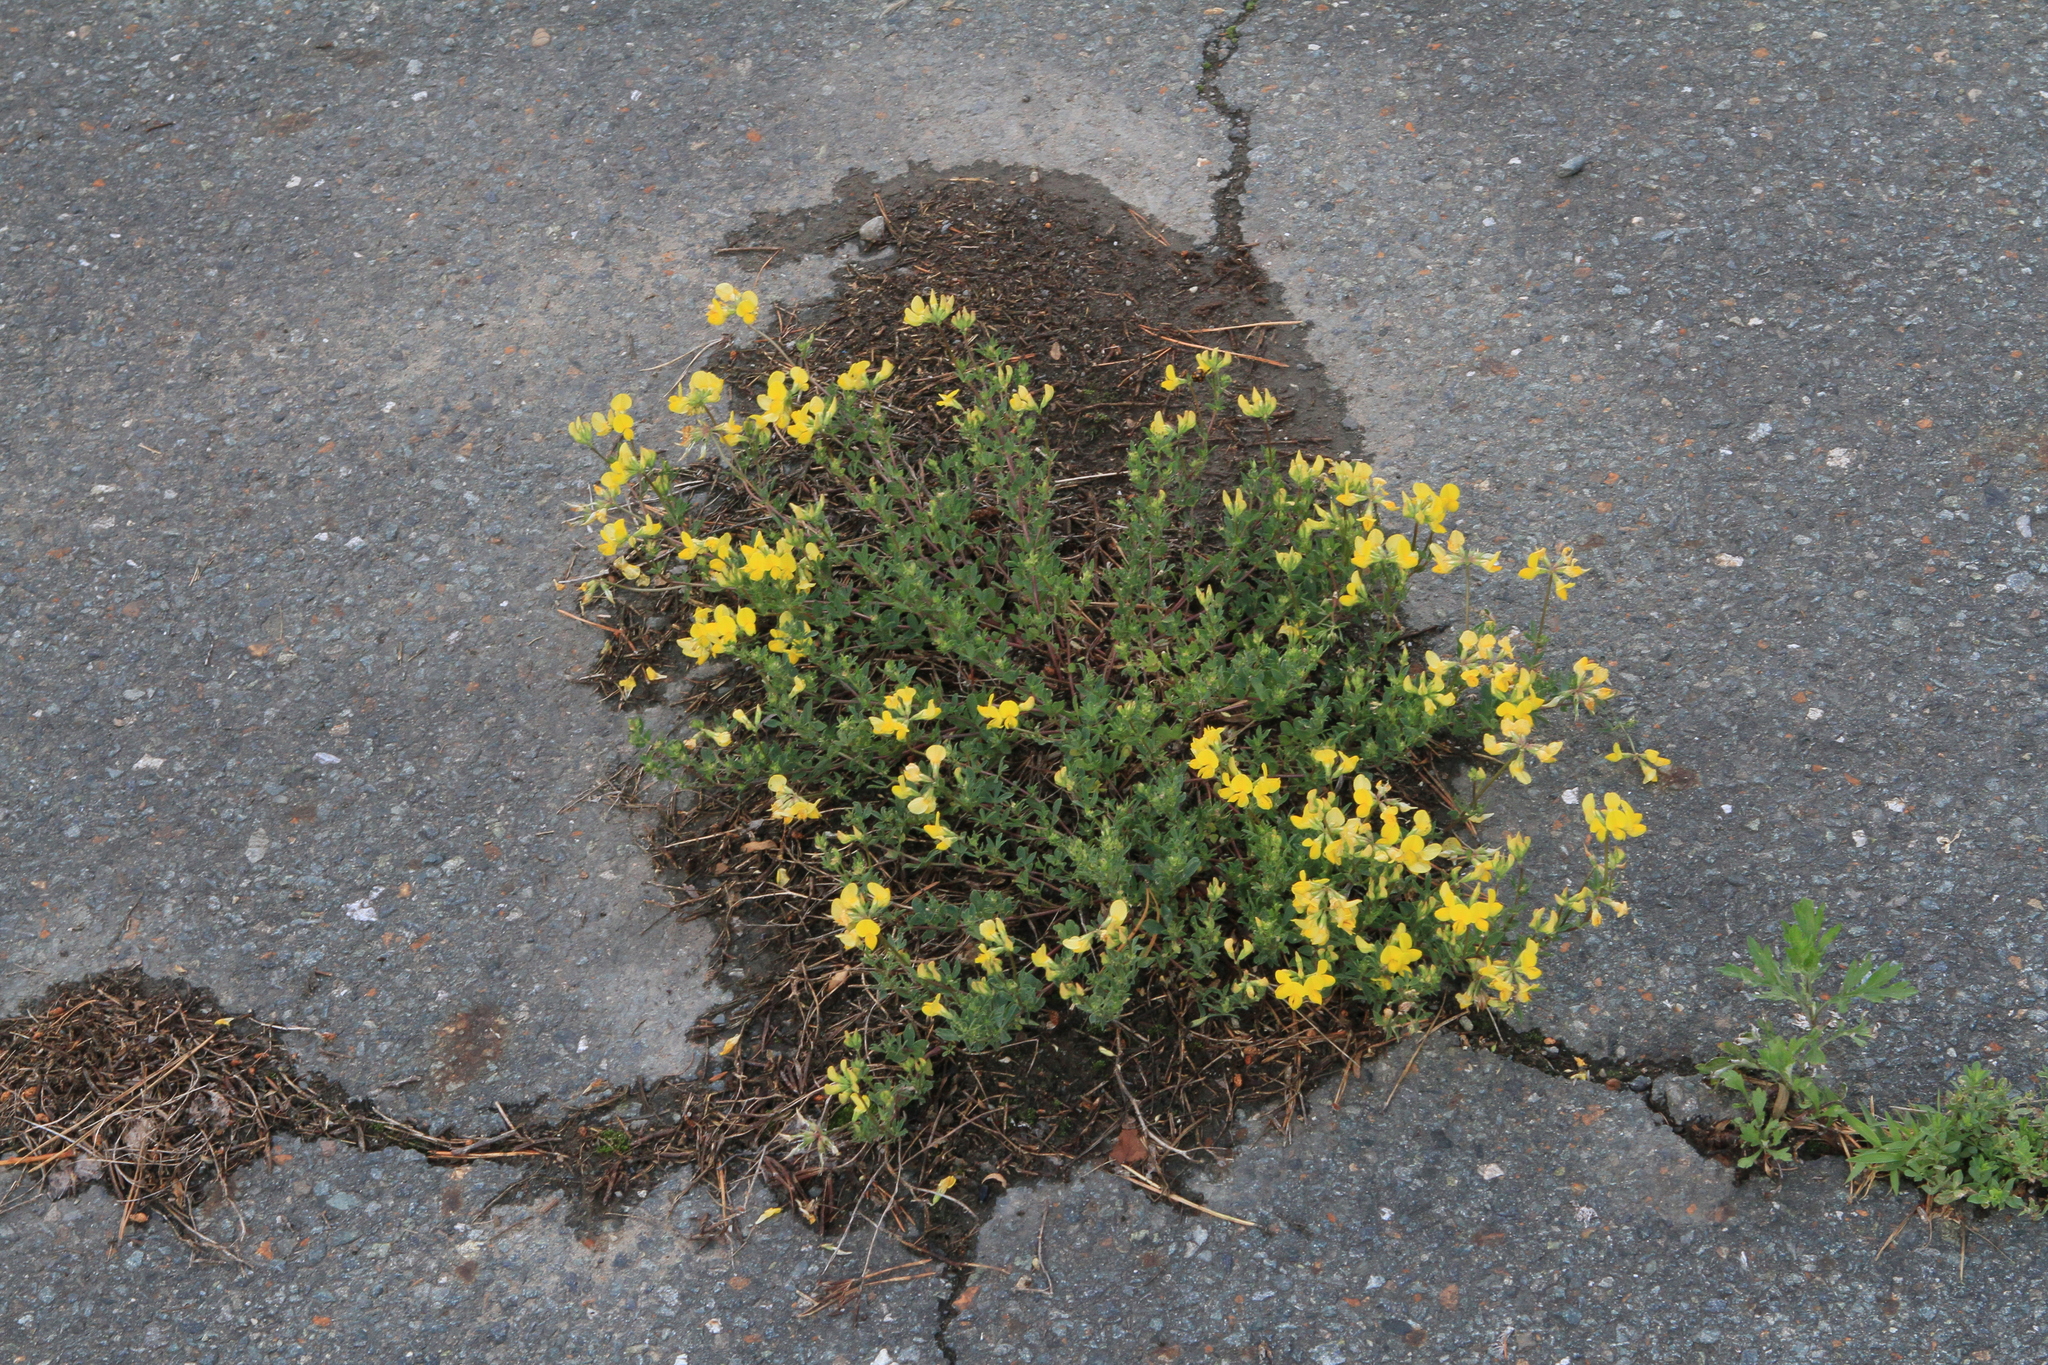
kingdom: Plantae
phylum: Tracheophyta
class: Magnoliopsida
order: Fabales
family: Fabaceae
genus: Lotus
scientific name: Lotus corniculatus
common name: Common bird's-foot-trefoil
